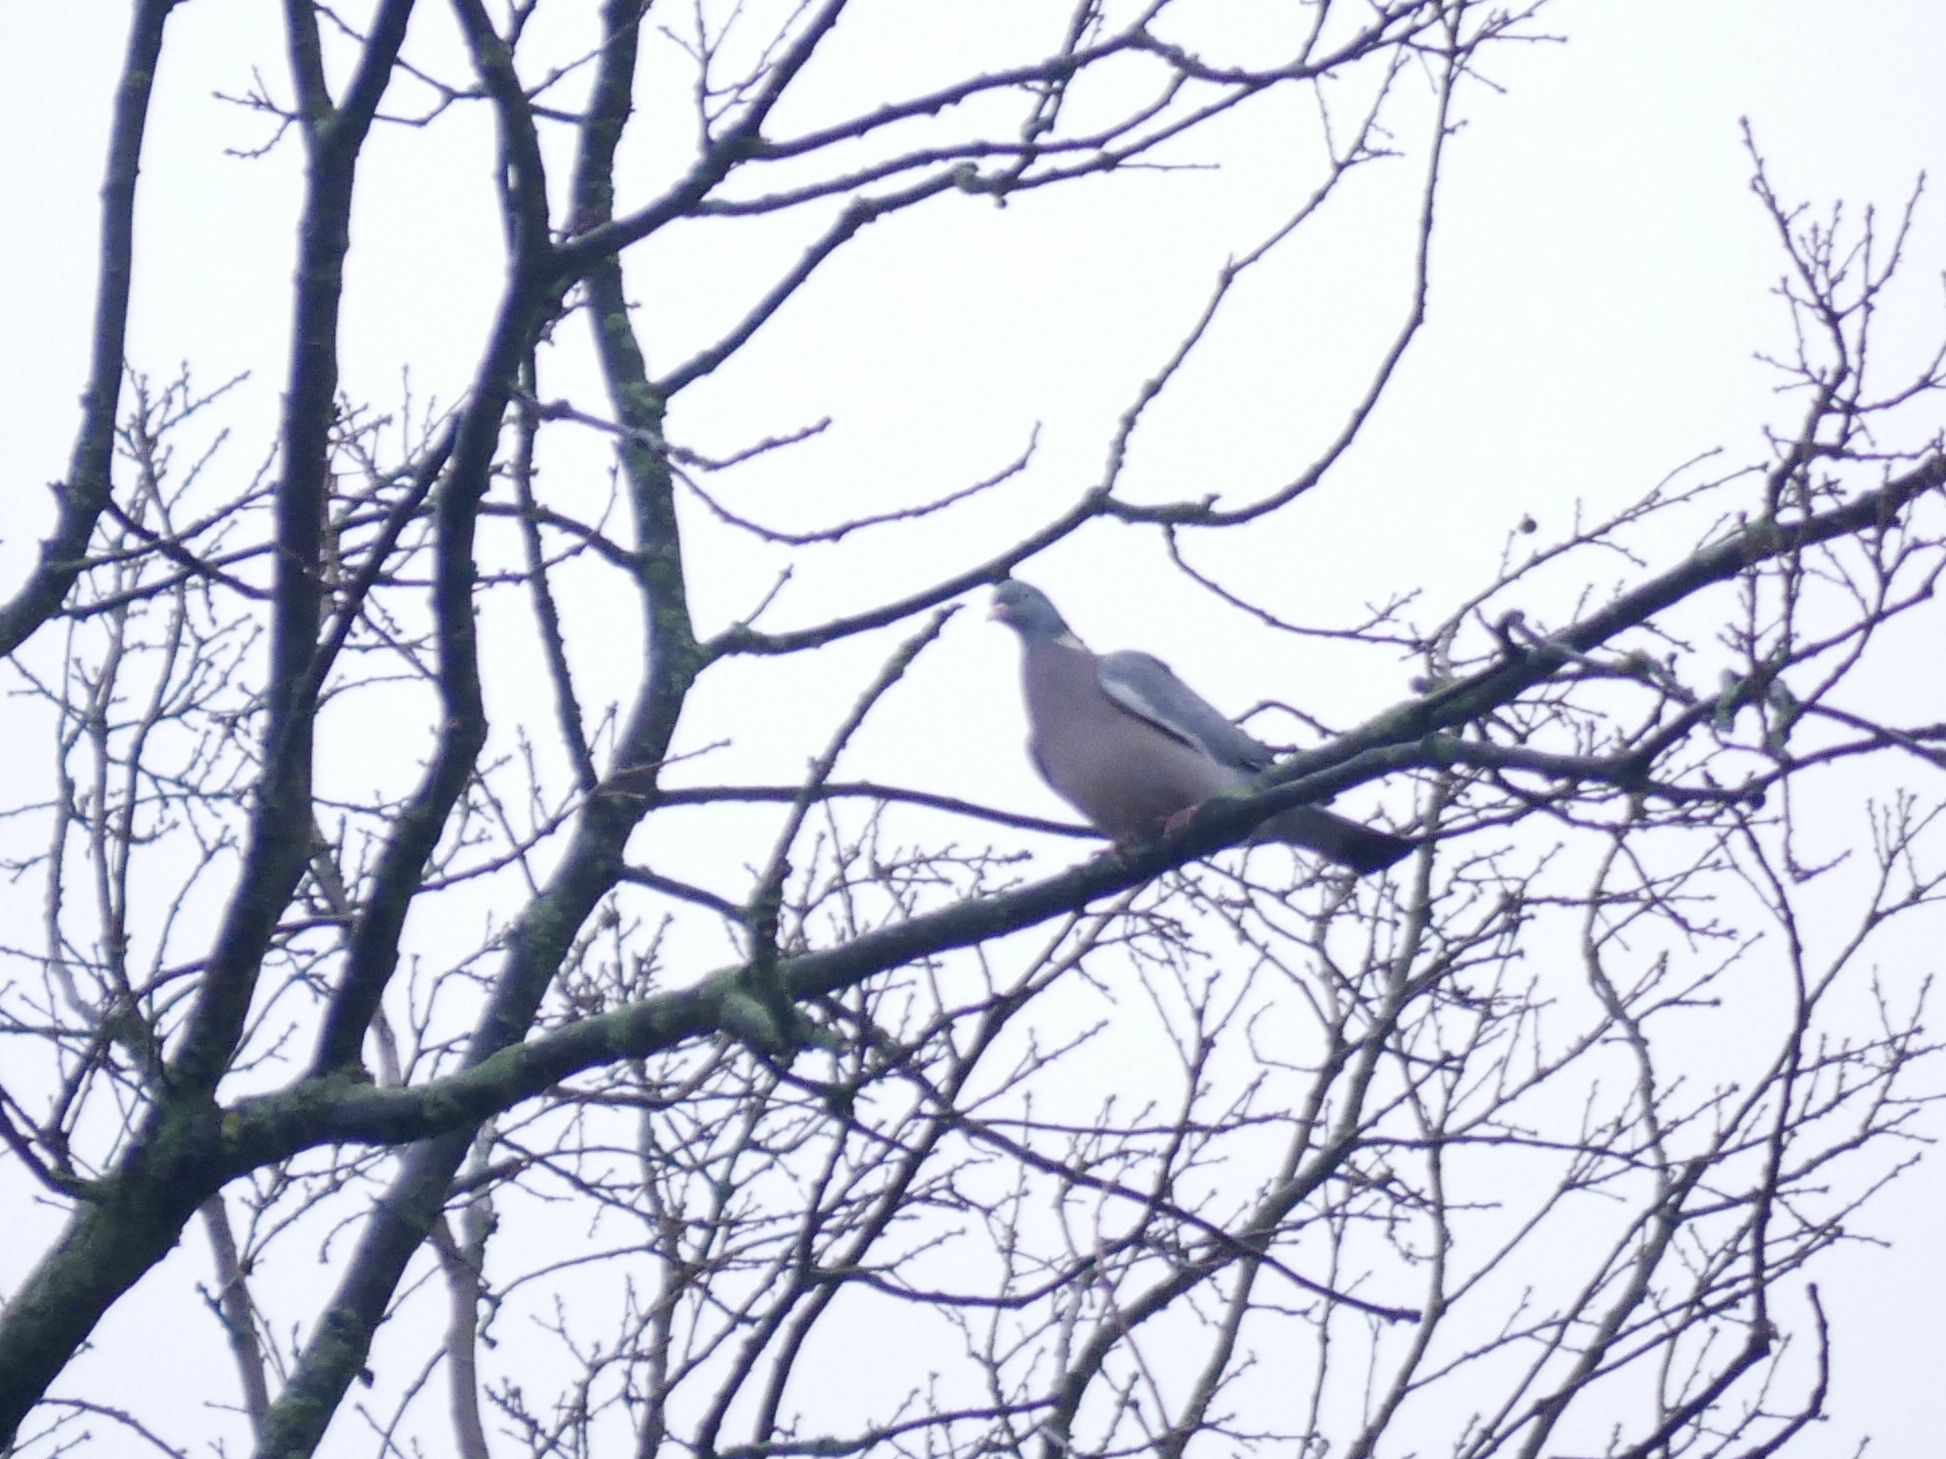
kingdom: Animalia
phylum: Chordata
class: Aves
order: Columbiformes
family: Columbidae
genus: Columba
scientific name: Columba palumbus
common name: Common wood pigeon
